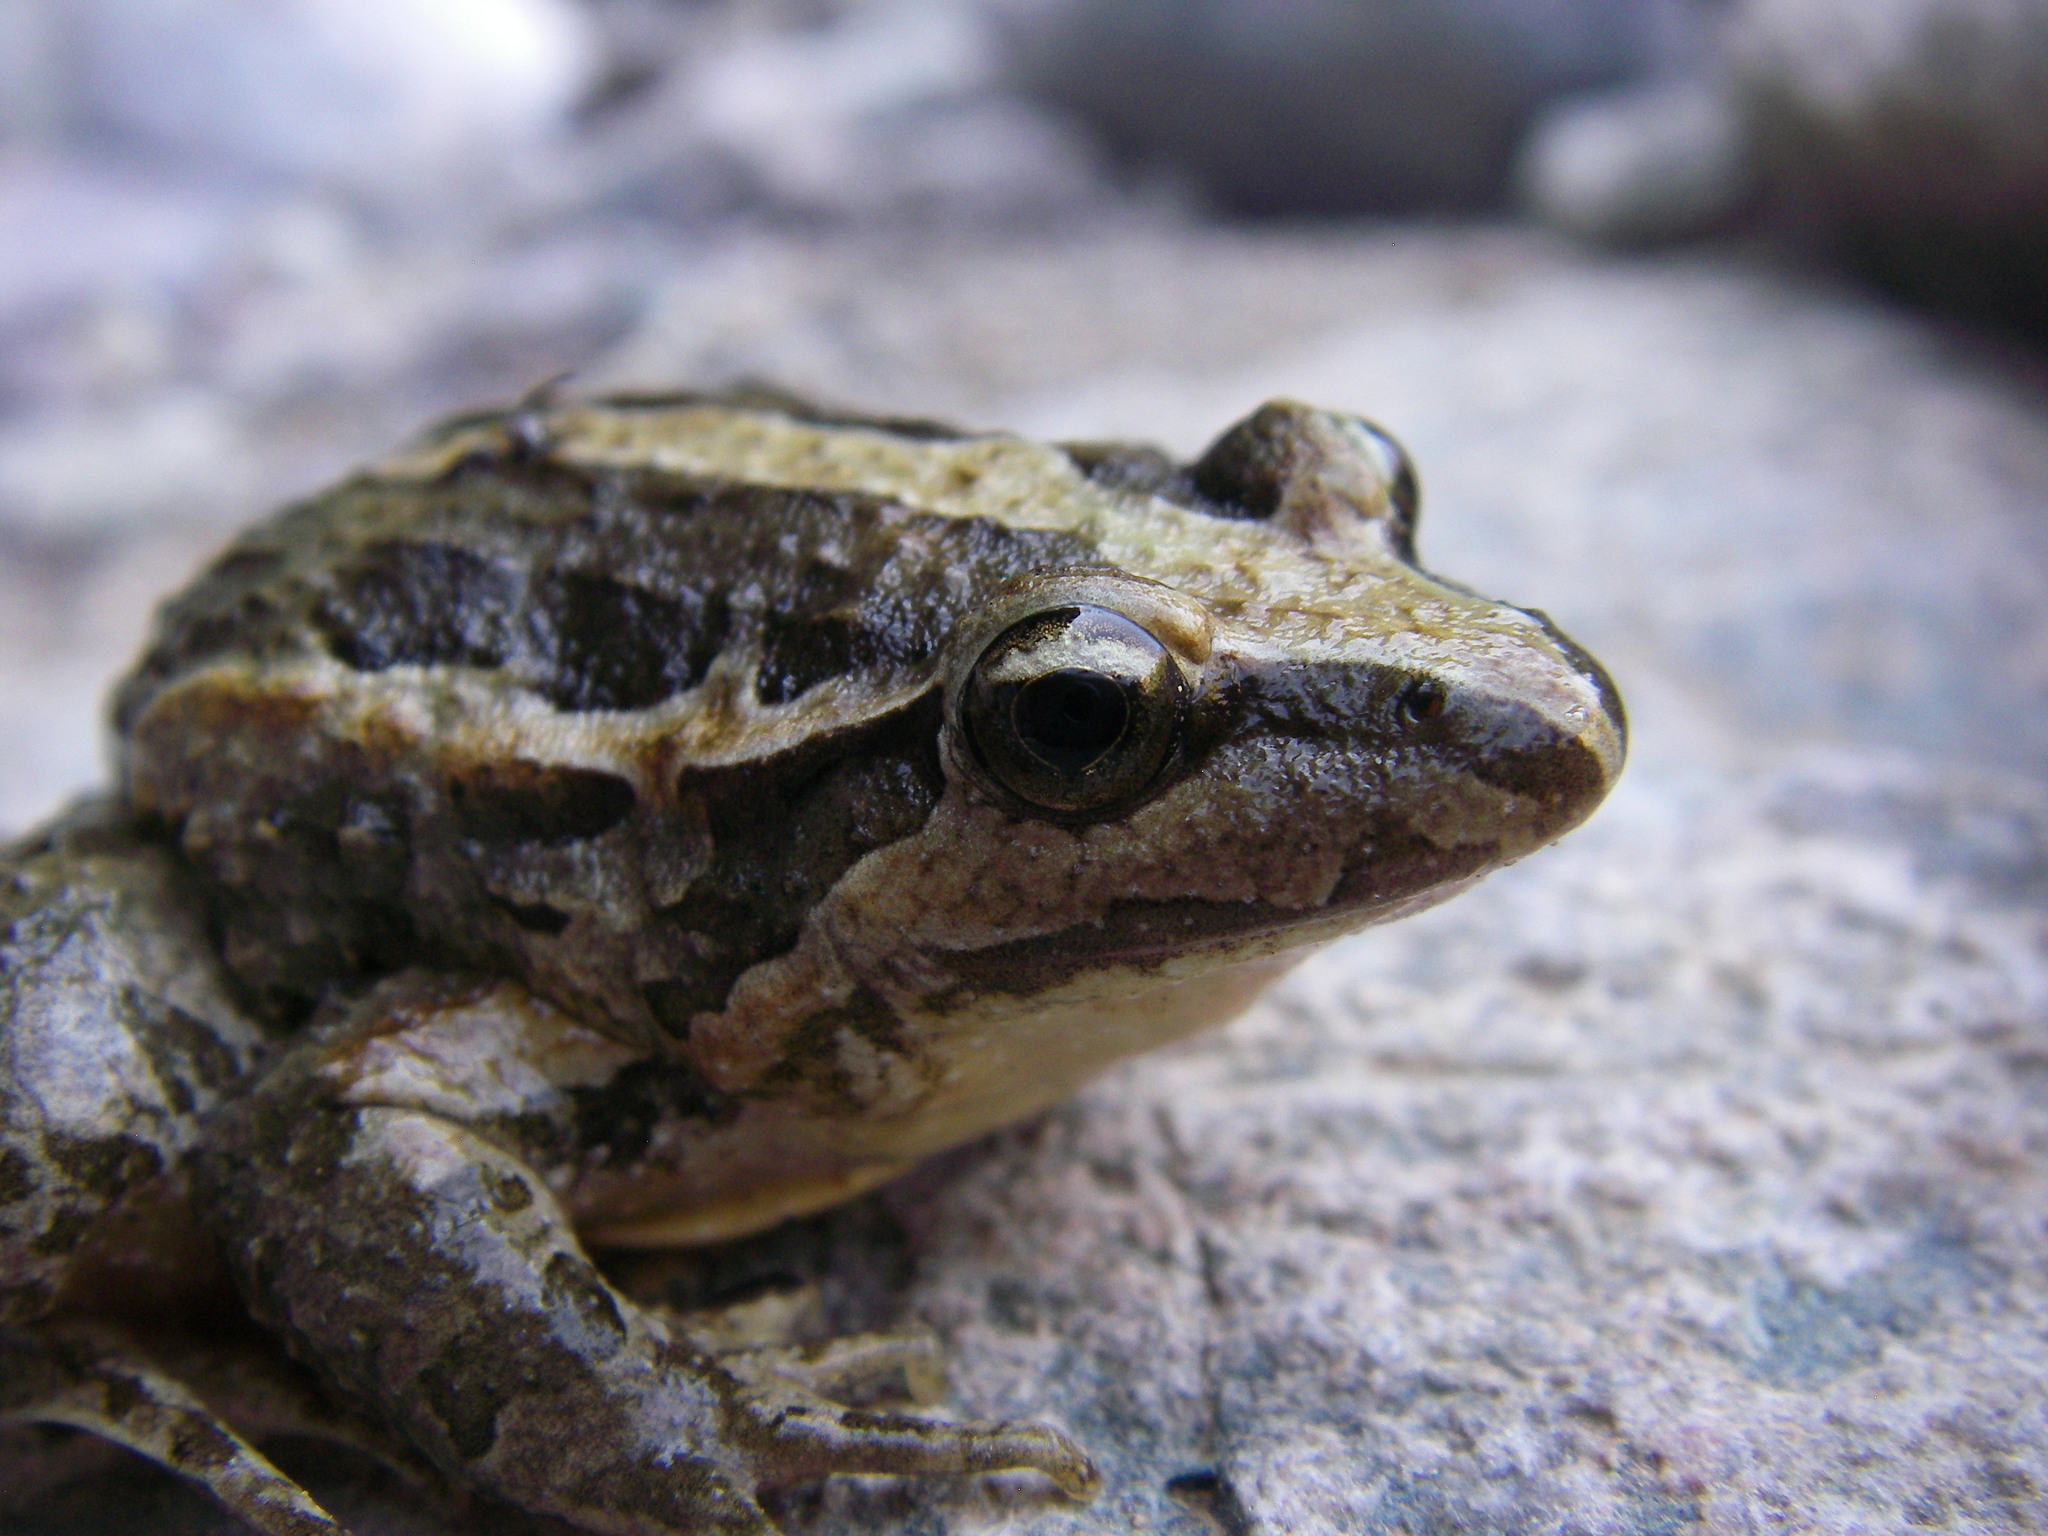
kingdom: Animalia
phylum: Chordata
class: Amphibia
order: Anura
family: Alytidae
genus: Discoglossus
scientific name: Discoglossus scovazzi
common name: Moroccan painted frog
